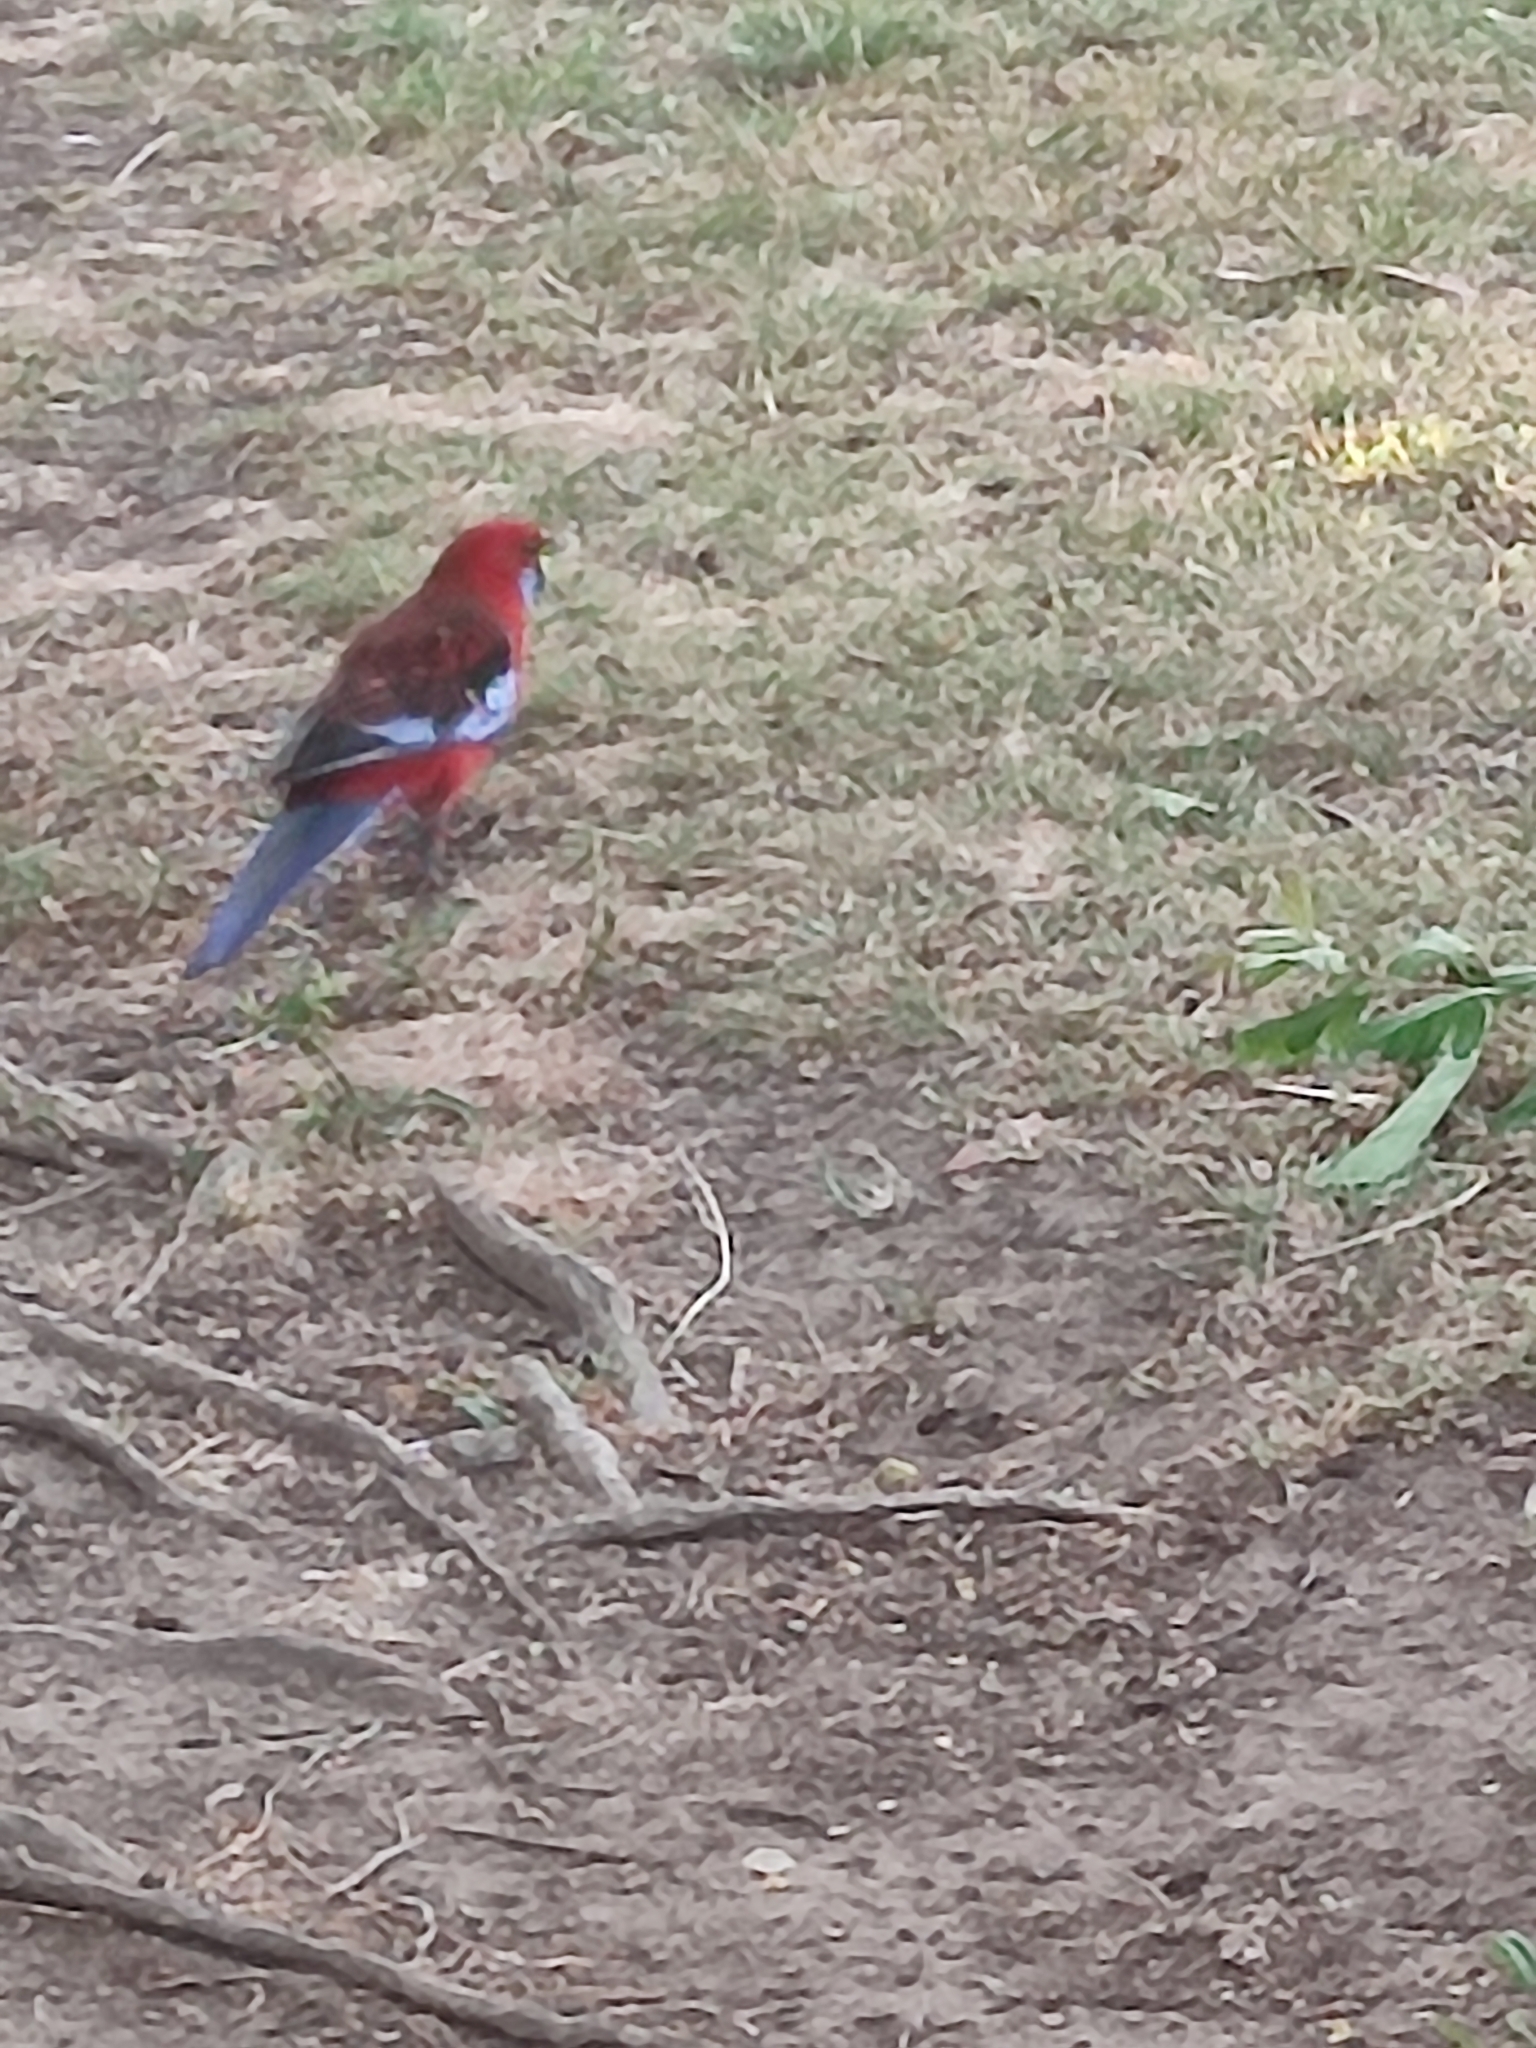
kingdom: Animalia
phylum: Chordata
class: Aves
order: Psittaciformes
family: Psittacidae
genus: Platycercus
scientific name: Platycercus elegans
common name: Crimson rosella
